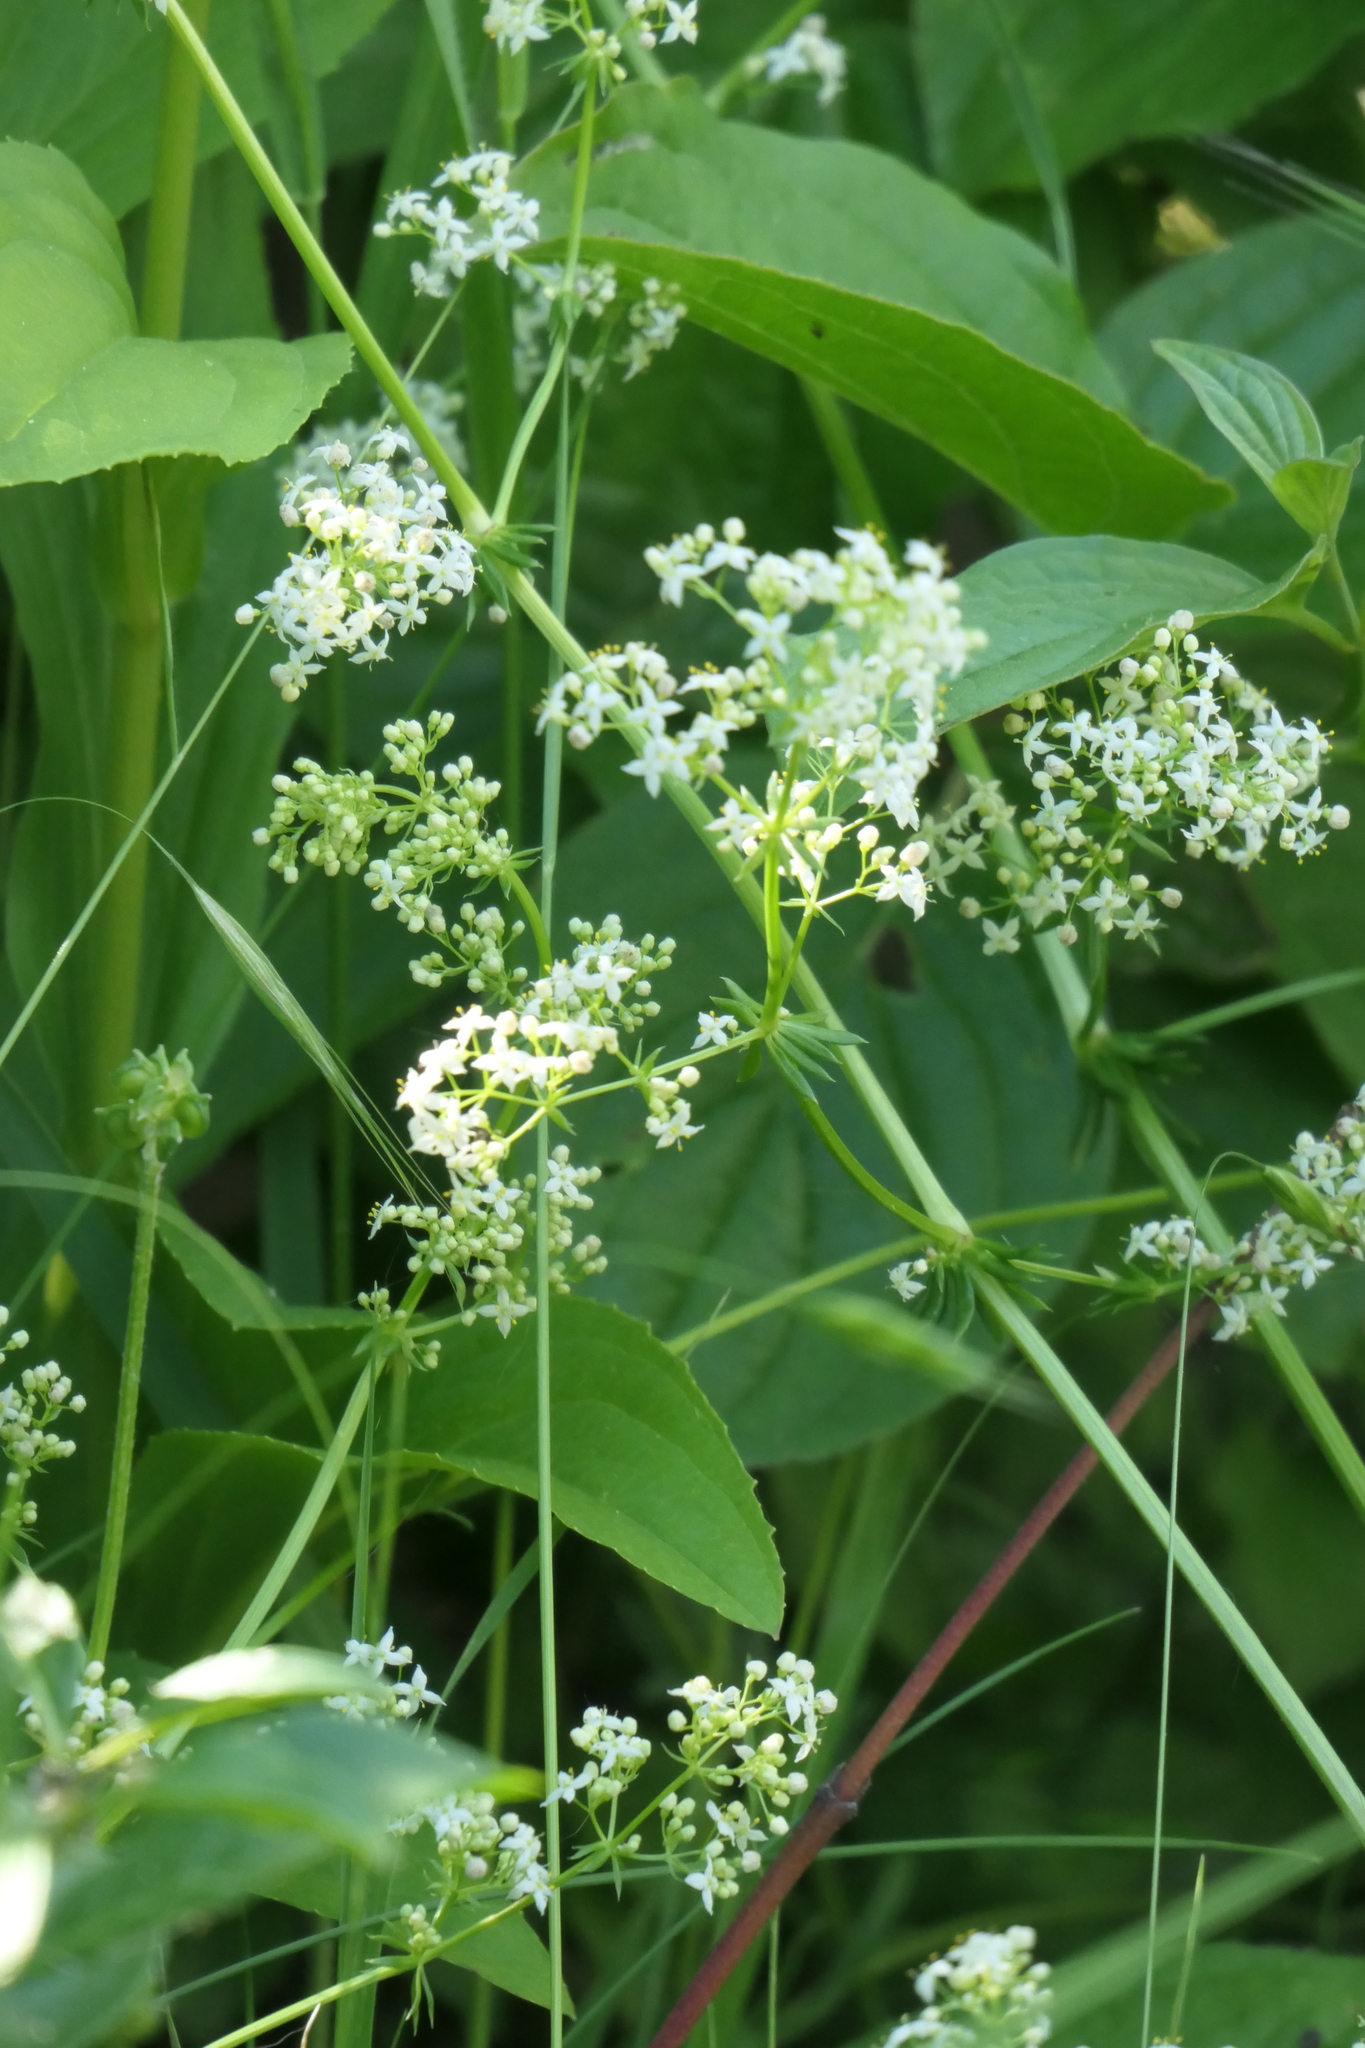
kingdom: Plantae
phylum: Tracheophyta
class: Magnoliopsida
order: Gentianales
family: Rubiaceae
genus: Galium
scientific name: Galium album
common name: White bedstraw
